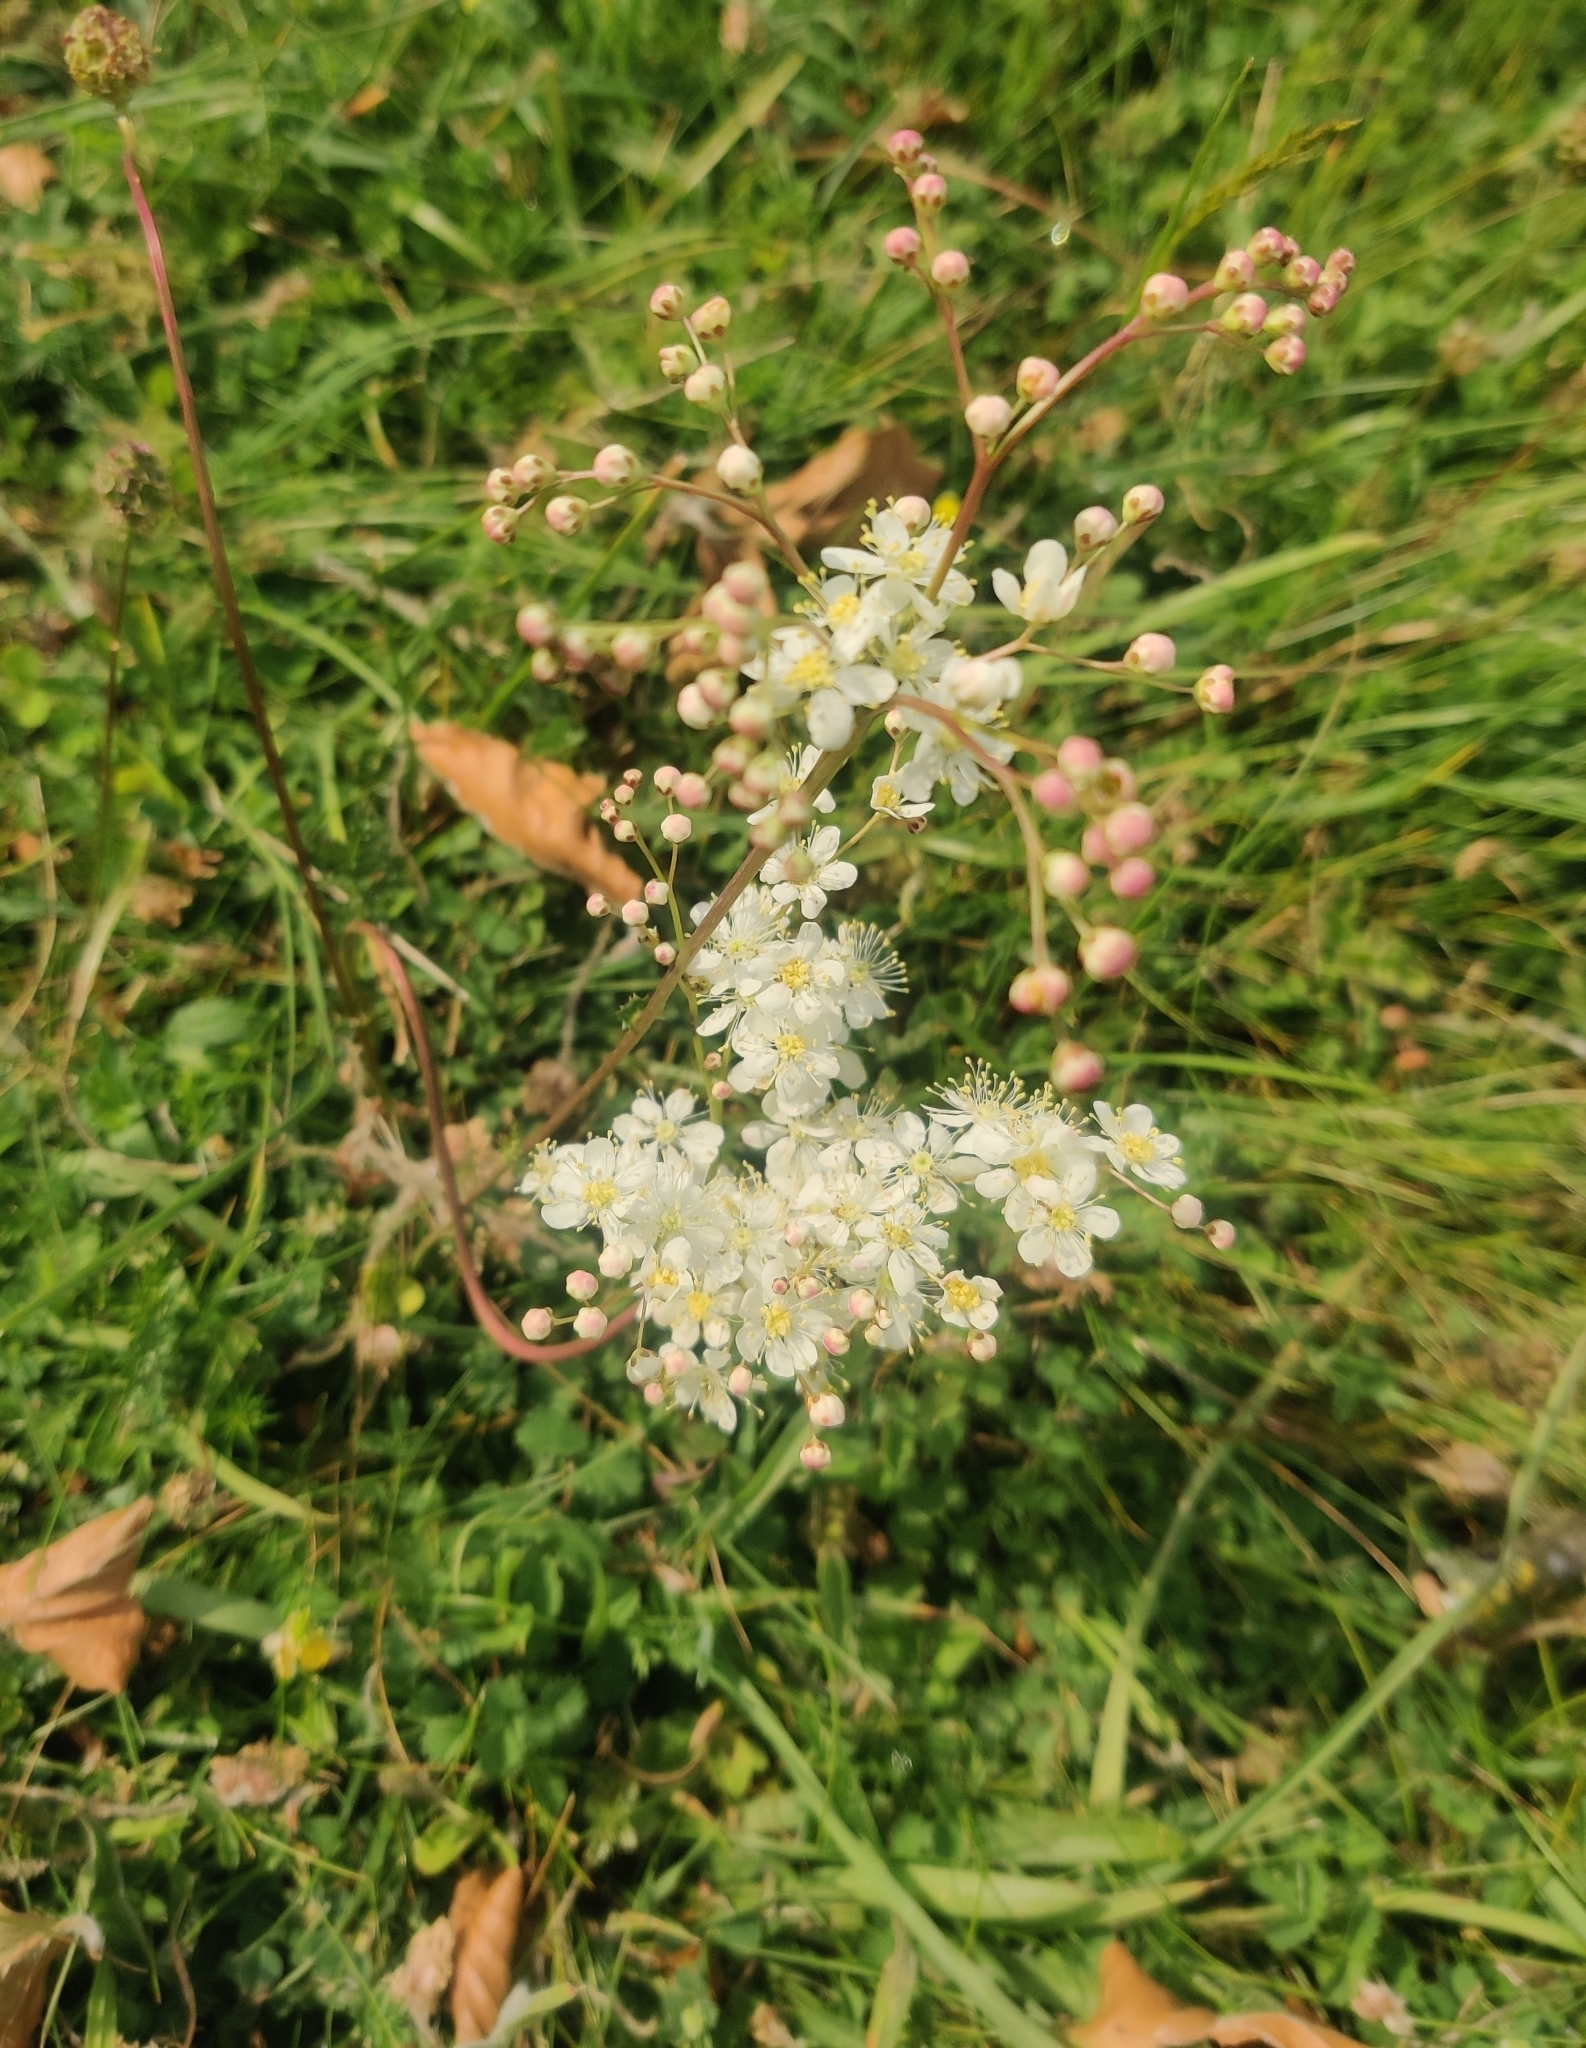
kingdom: Plantae
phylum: Tracheophyta
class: Magnoliopsida
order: Rosales
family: Rosaceae
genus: Filipendula
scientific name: Filipendula vulgaris
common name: Dropwort
